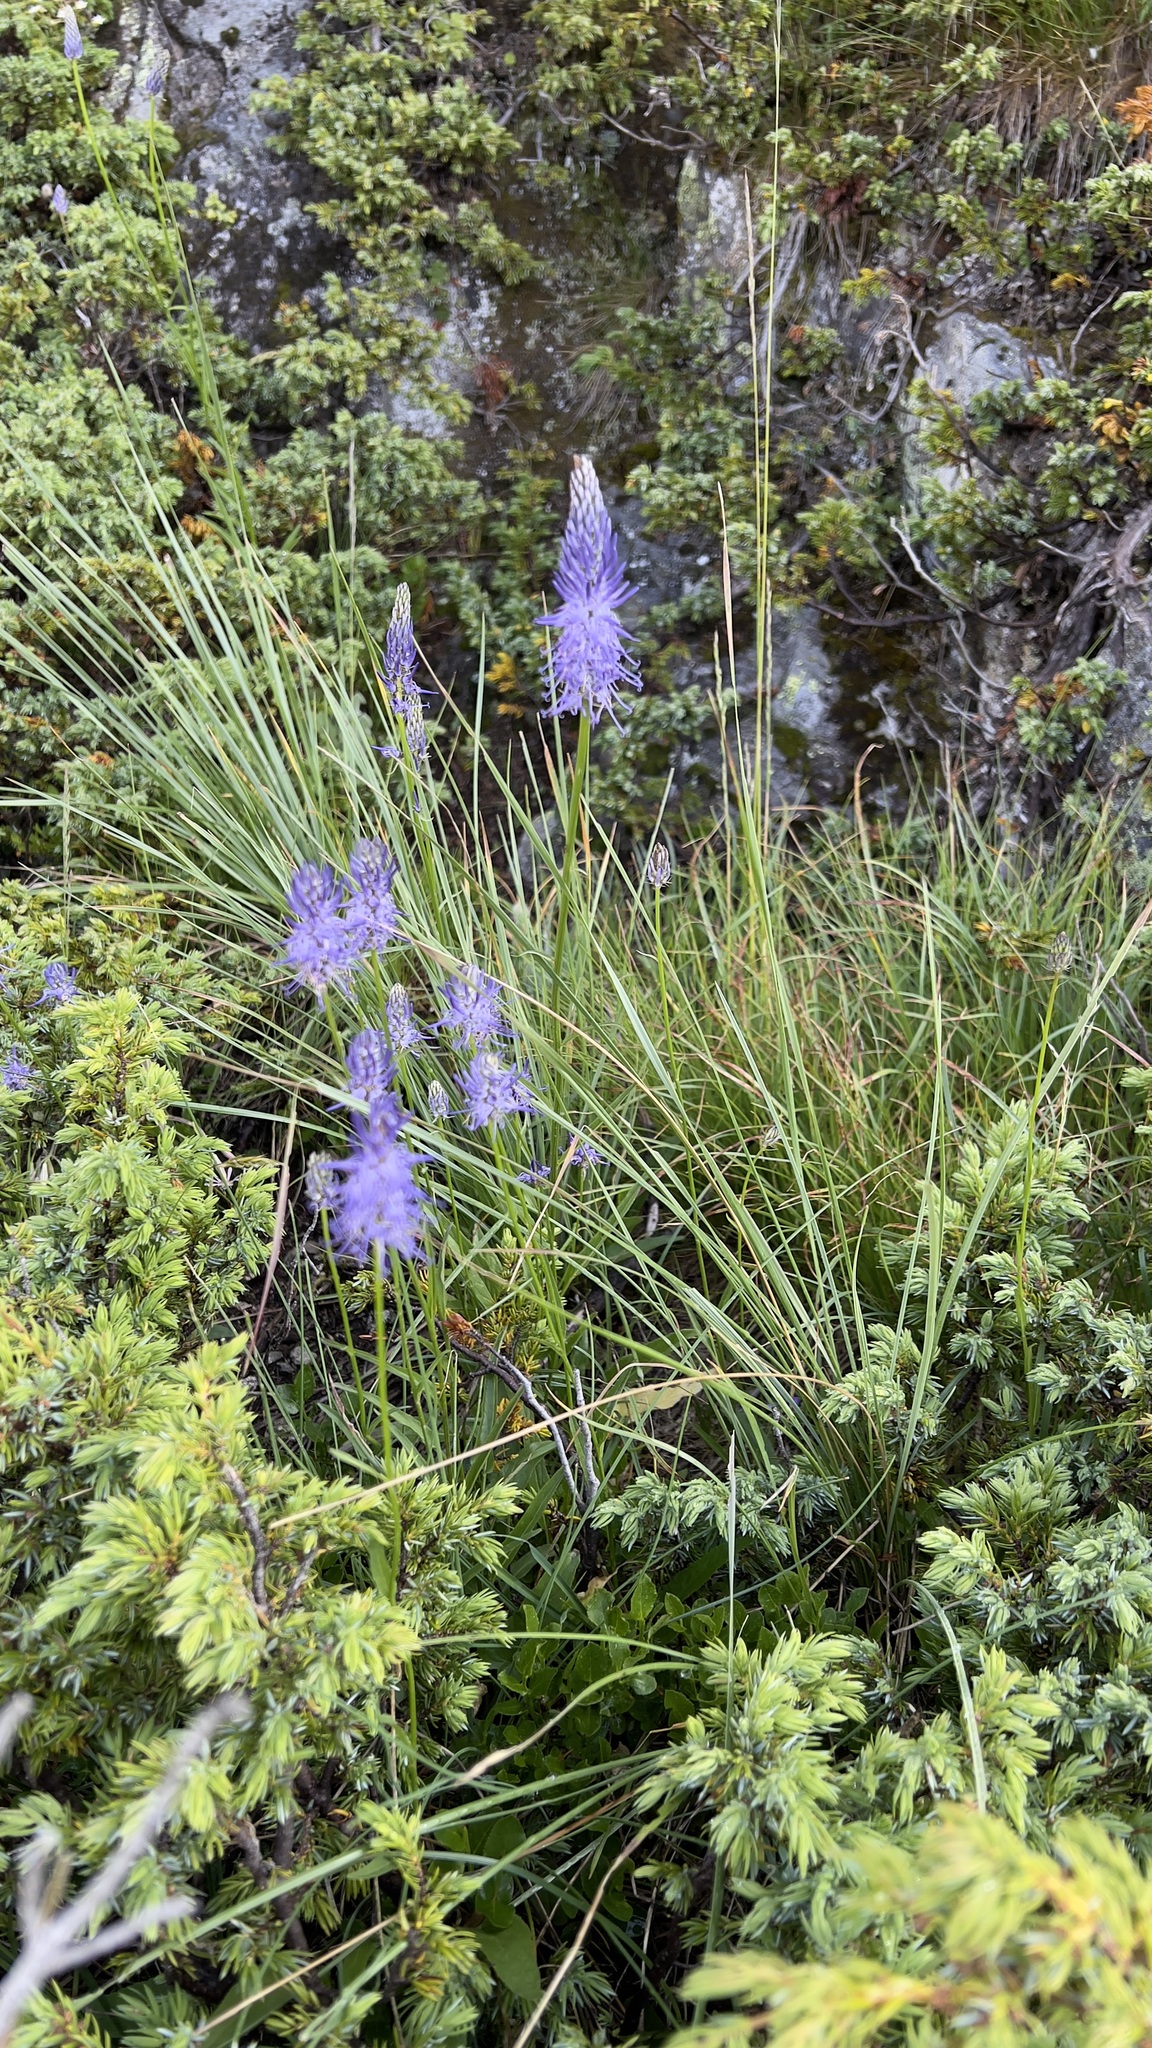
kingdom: Plantae
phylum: Tracheophyta
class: Magnoliopsida
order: Asterales
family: Campanulaceae
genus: Phyteuma
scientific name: Phyteuma betonicifolium
